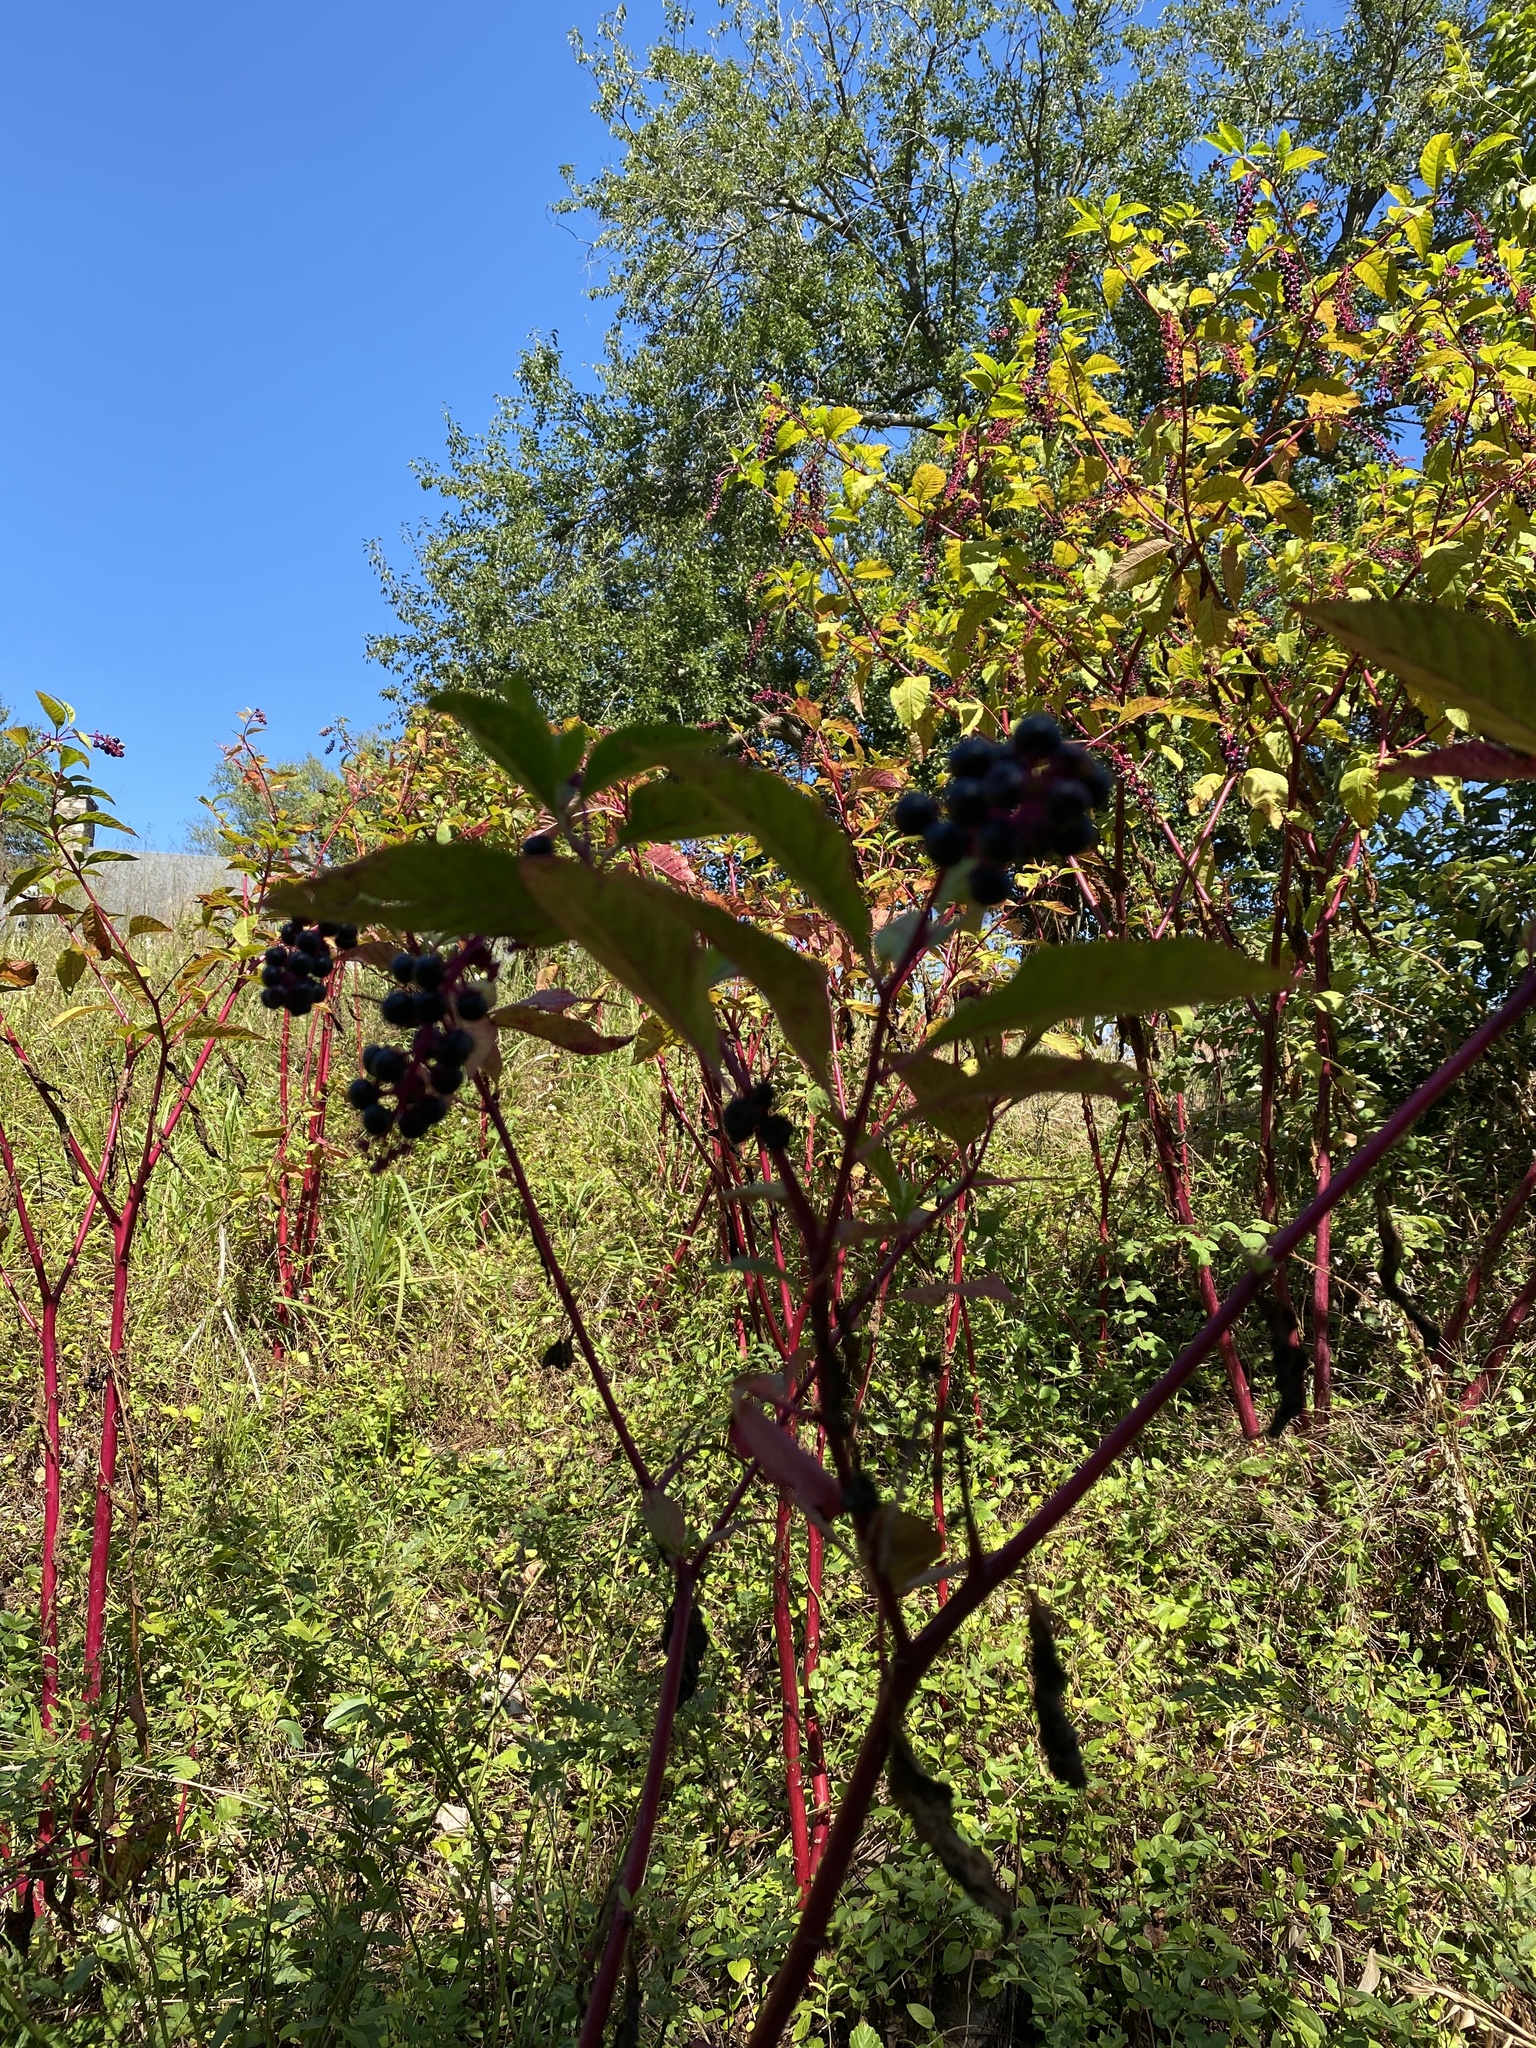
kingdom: Plantae
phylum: Tracheophyta
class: Magnoliopsida
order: Caryophyllales
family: Phytolaccaceae
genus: Phytolacca
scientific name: Phytolacca americana
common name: American pokeweed
